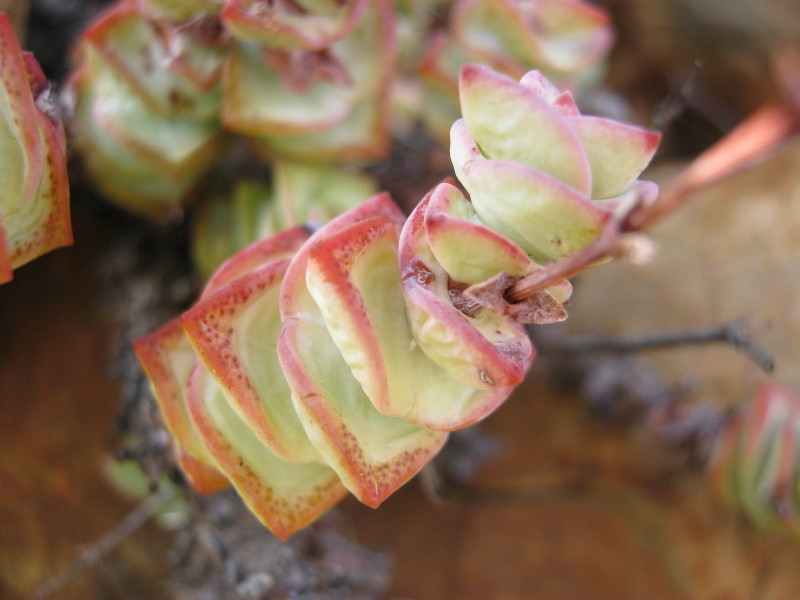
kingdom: Plantae
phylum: Tracheophyta
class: Magnoliopsida
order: Saxifragales
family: Crassulaceae
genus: Crassula
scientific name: Crassula perforata
